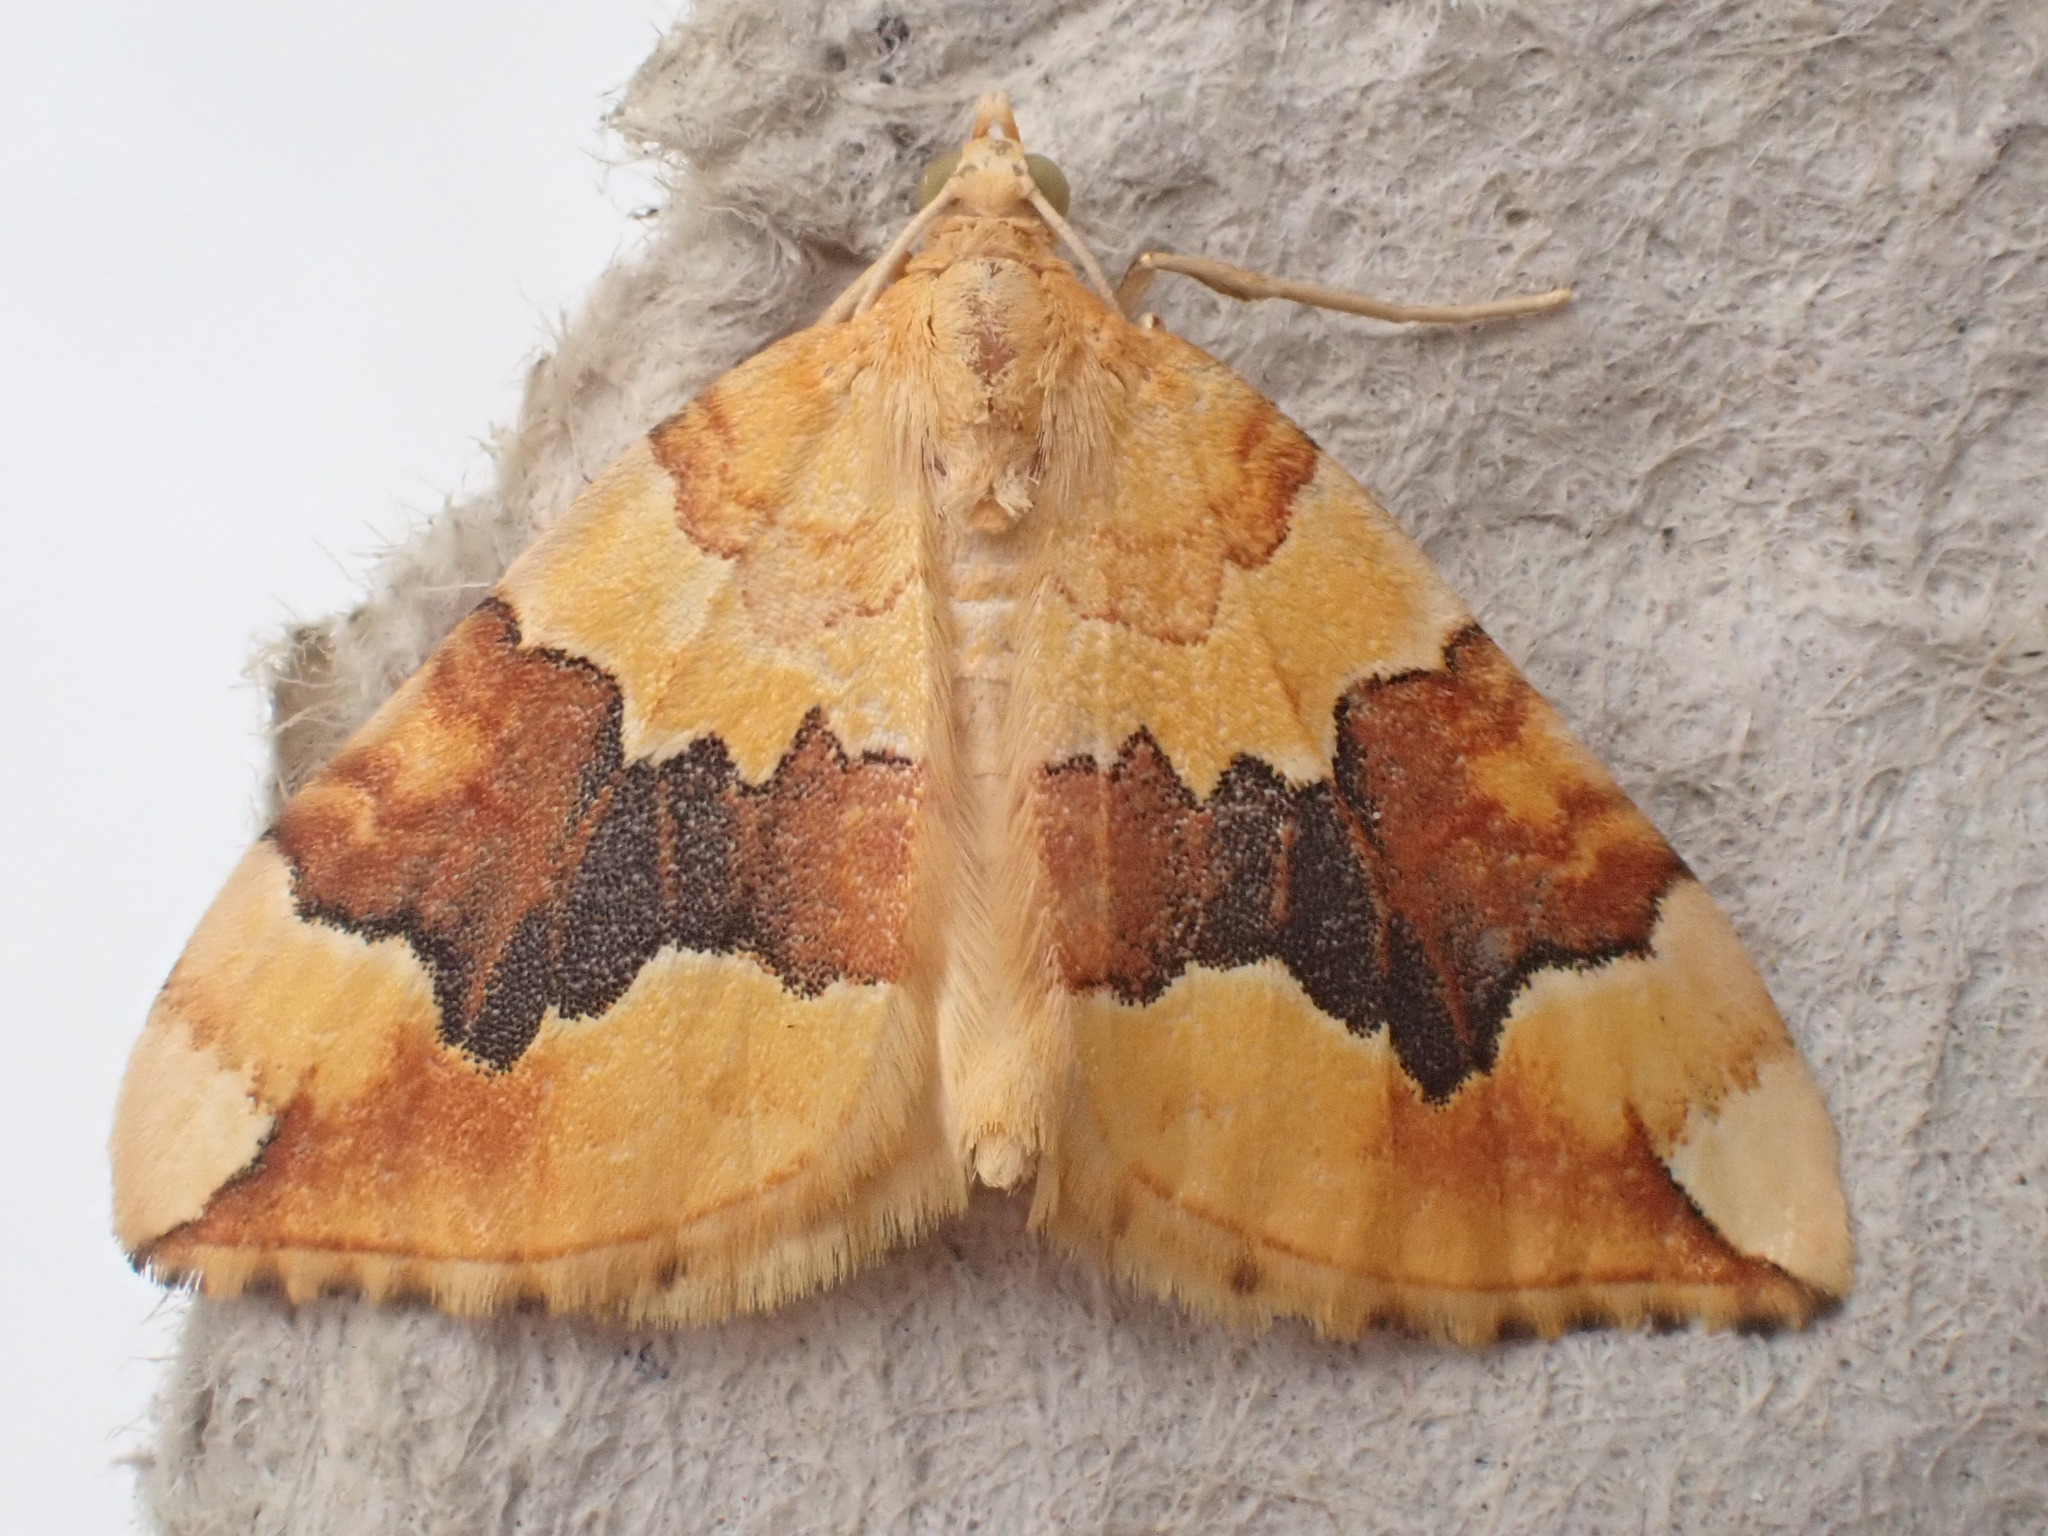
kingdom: Animalia
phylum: Arthropoda
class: Insecta
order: Lepidoptera
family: Geometridae
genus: Cidaria
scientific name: Cidaria fulvata
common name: Barred yellow
